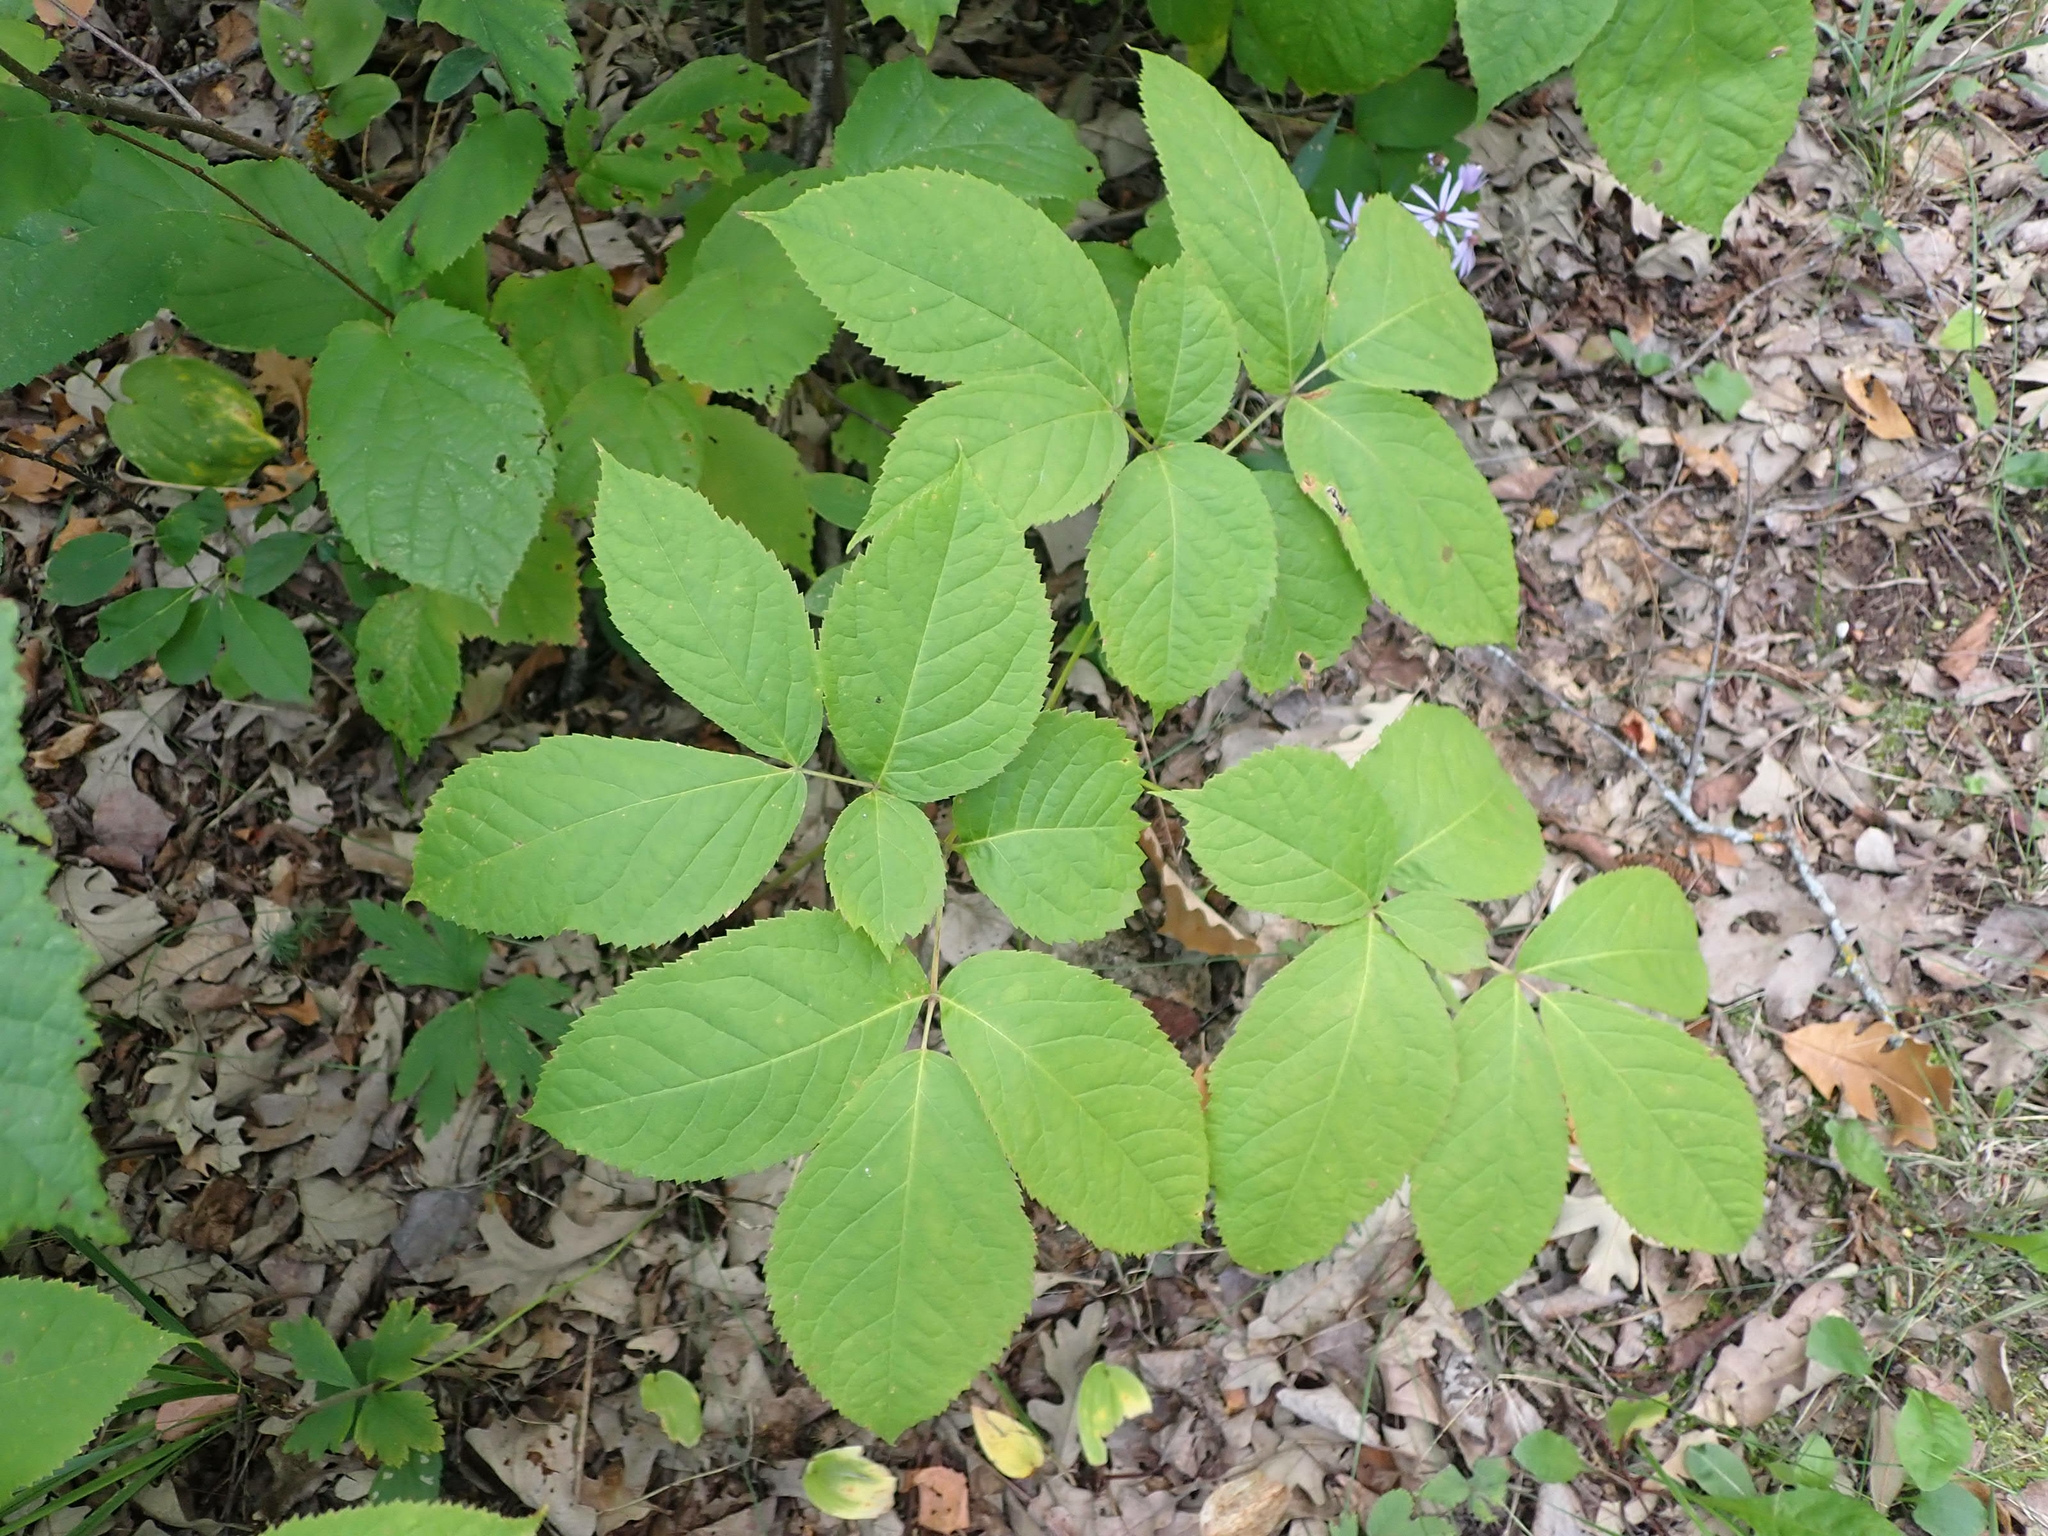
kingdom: Plantae
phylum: Tracheophyta
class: Magnoliopsida
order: Apiales
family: Araliaceae
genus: Aralia
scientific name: Aralia nudicaulis
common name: Wild sarsaparilla
